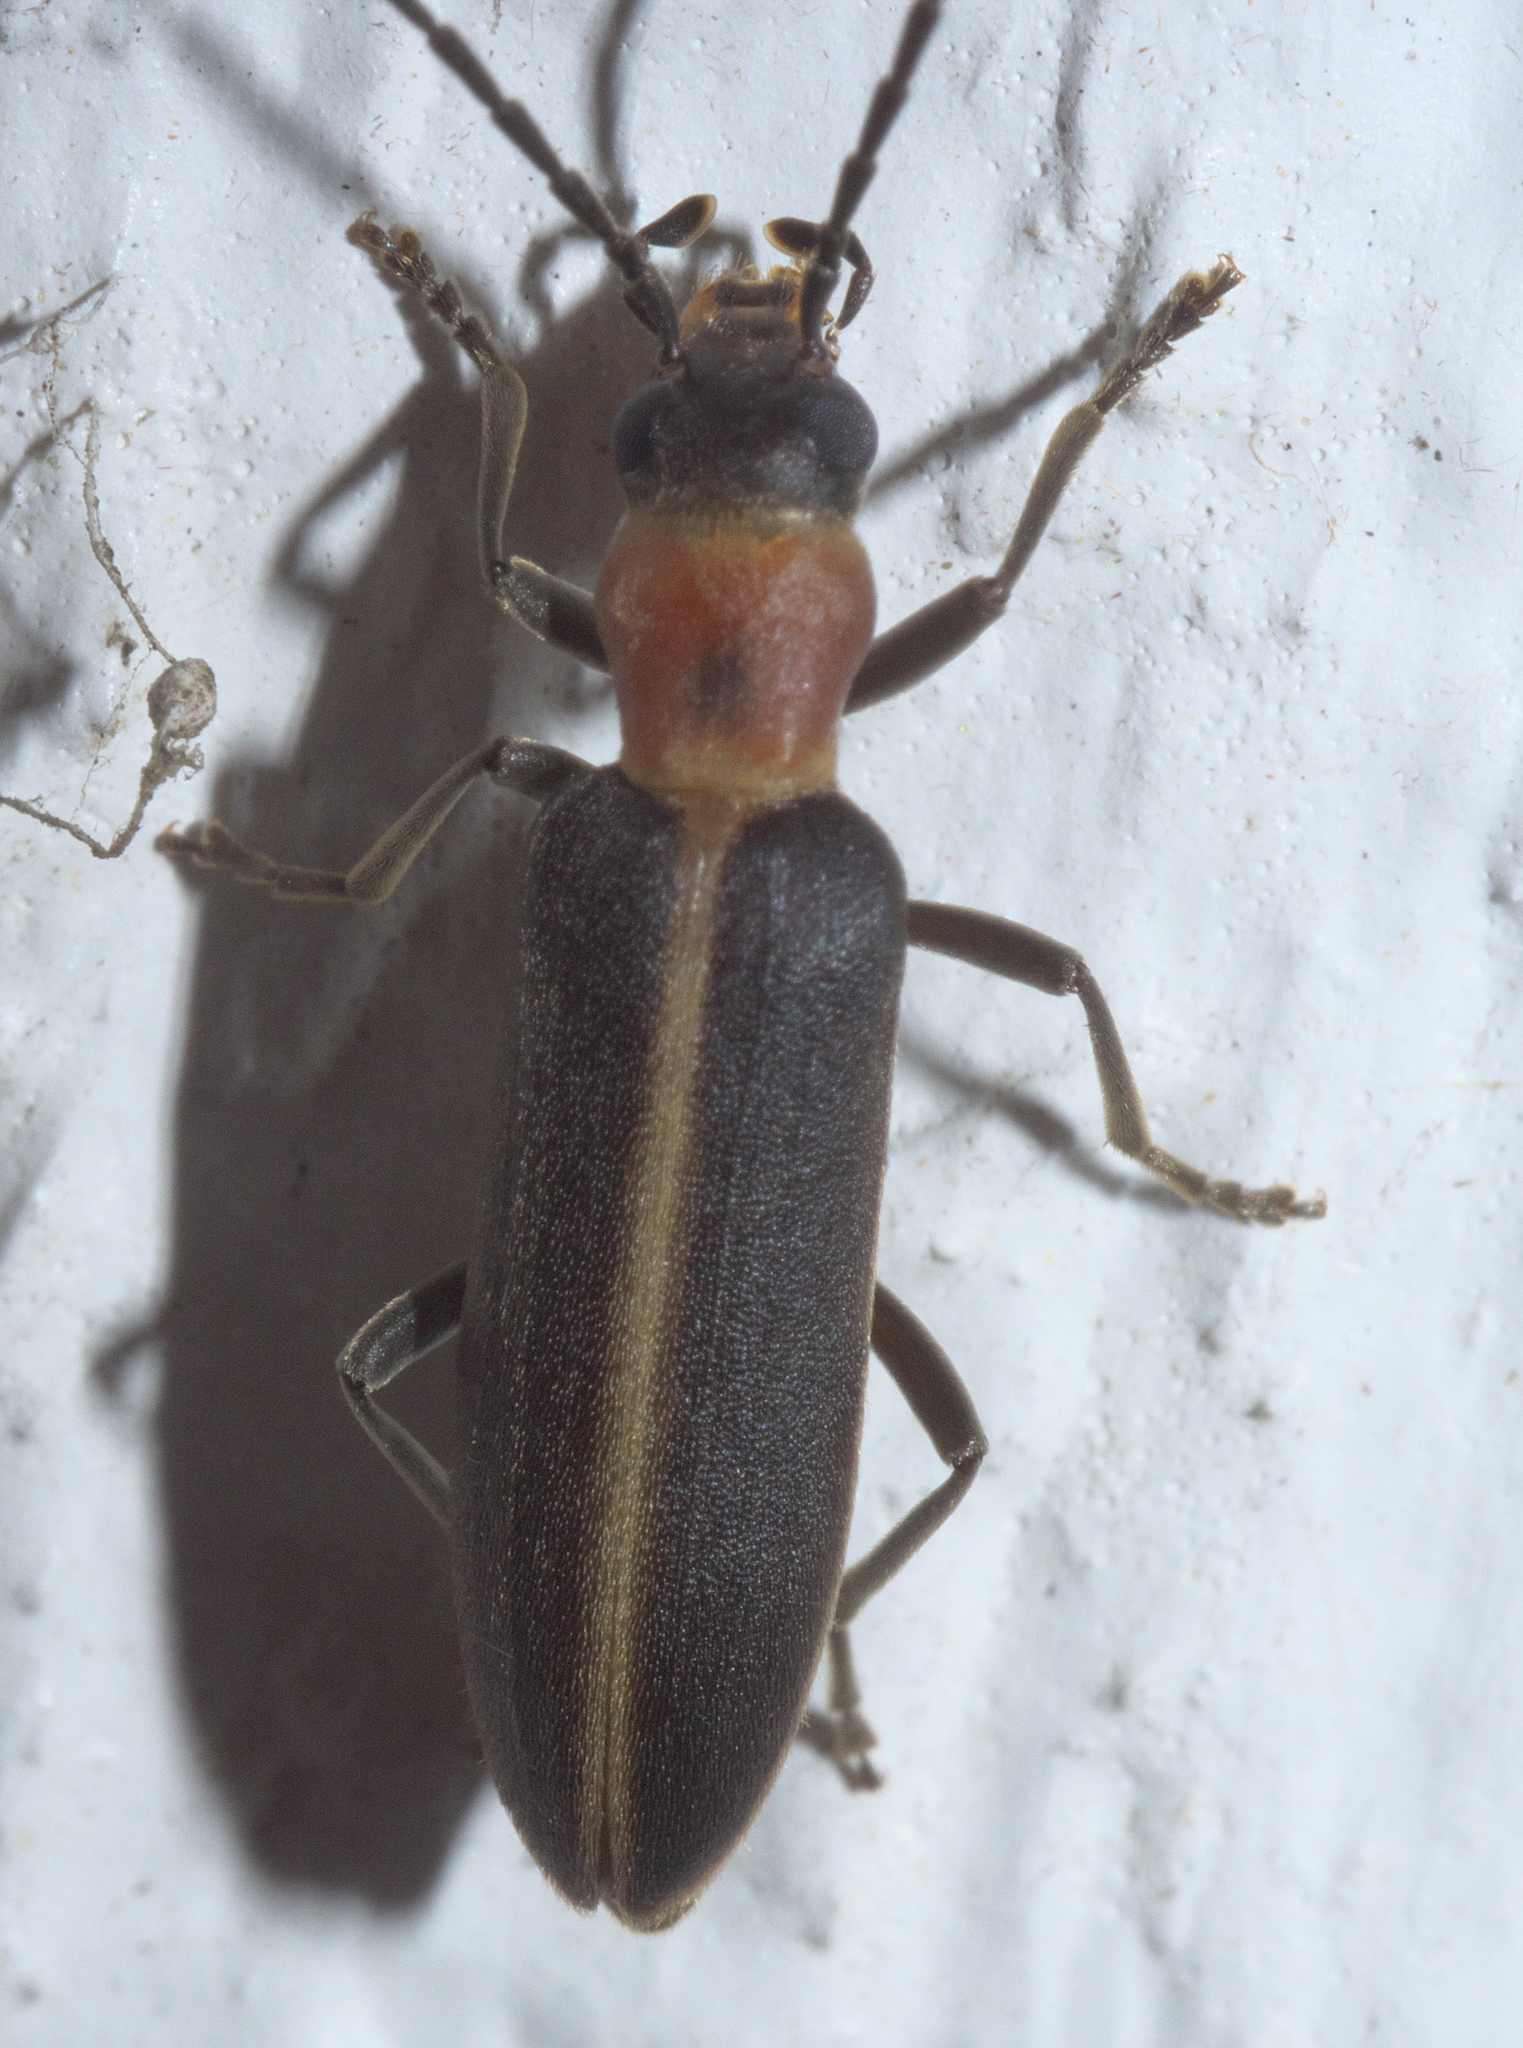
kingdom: Animalia
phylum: Arthropoda
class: Insecta
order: Coleoptera
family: Oedemeridae
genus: Oxycopis
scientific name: Oxycopis mimetica
